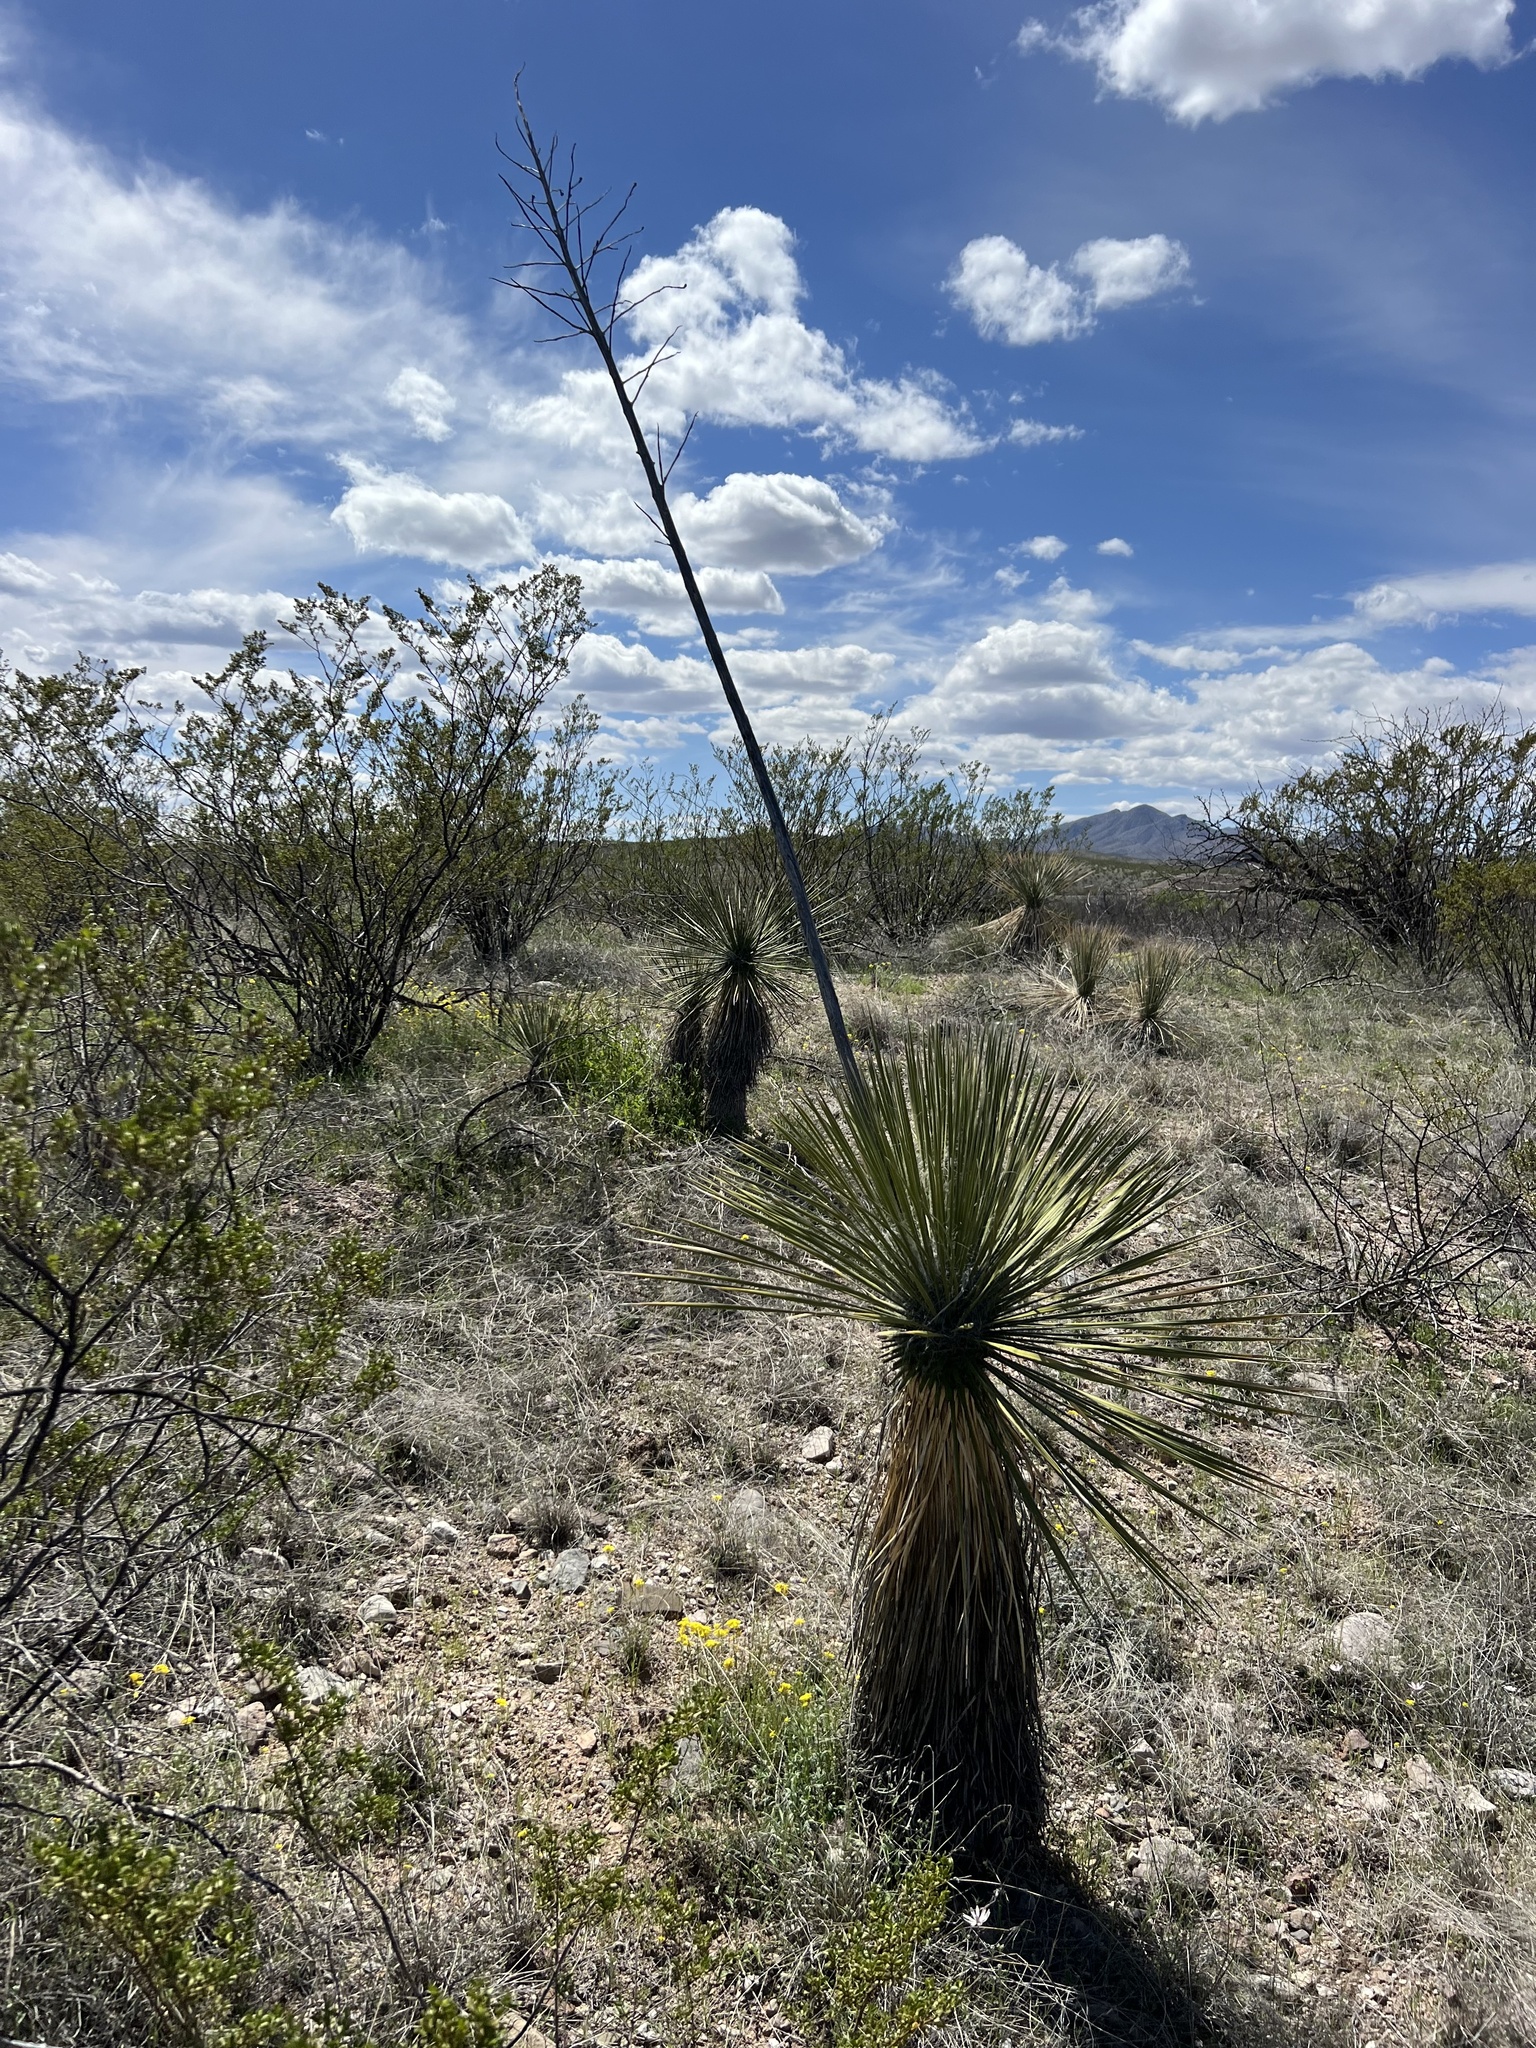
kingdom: Plantae
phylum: Tracheophyta
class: Liliopsida
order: Asparagales
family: Asparagaceae
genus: Yucca
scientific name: Yucca elata
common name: Palmella
